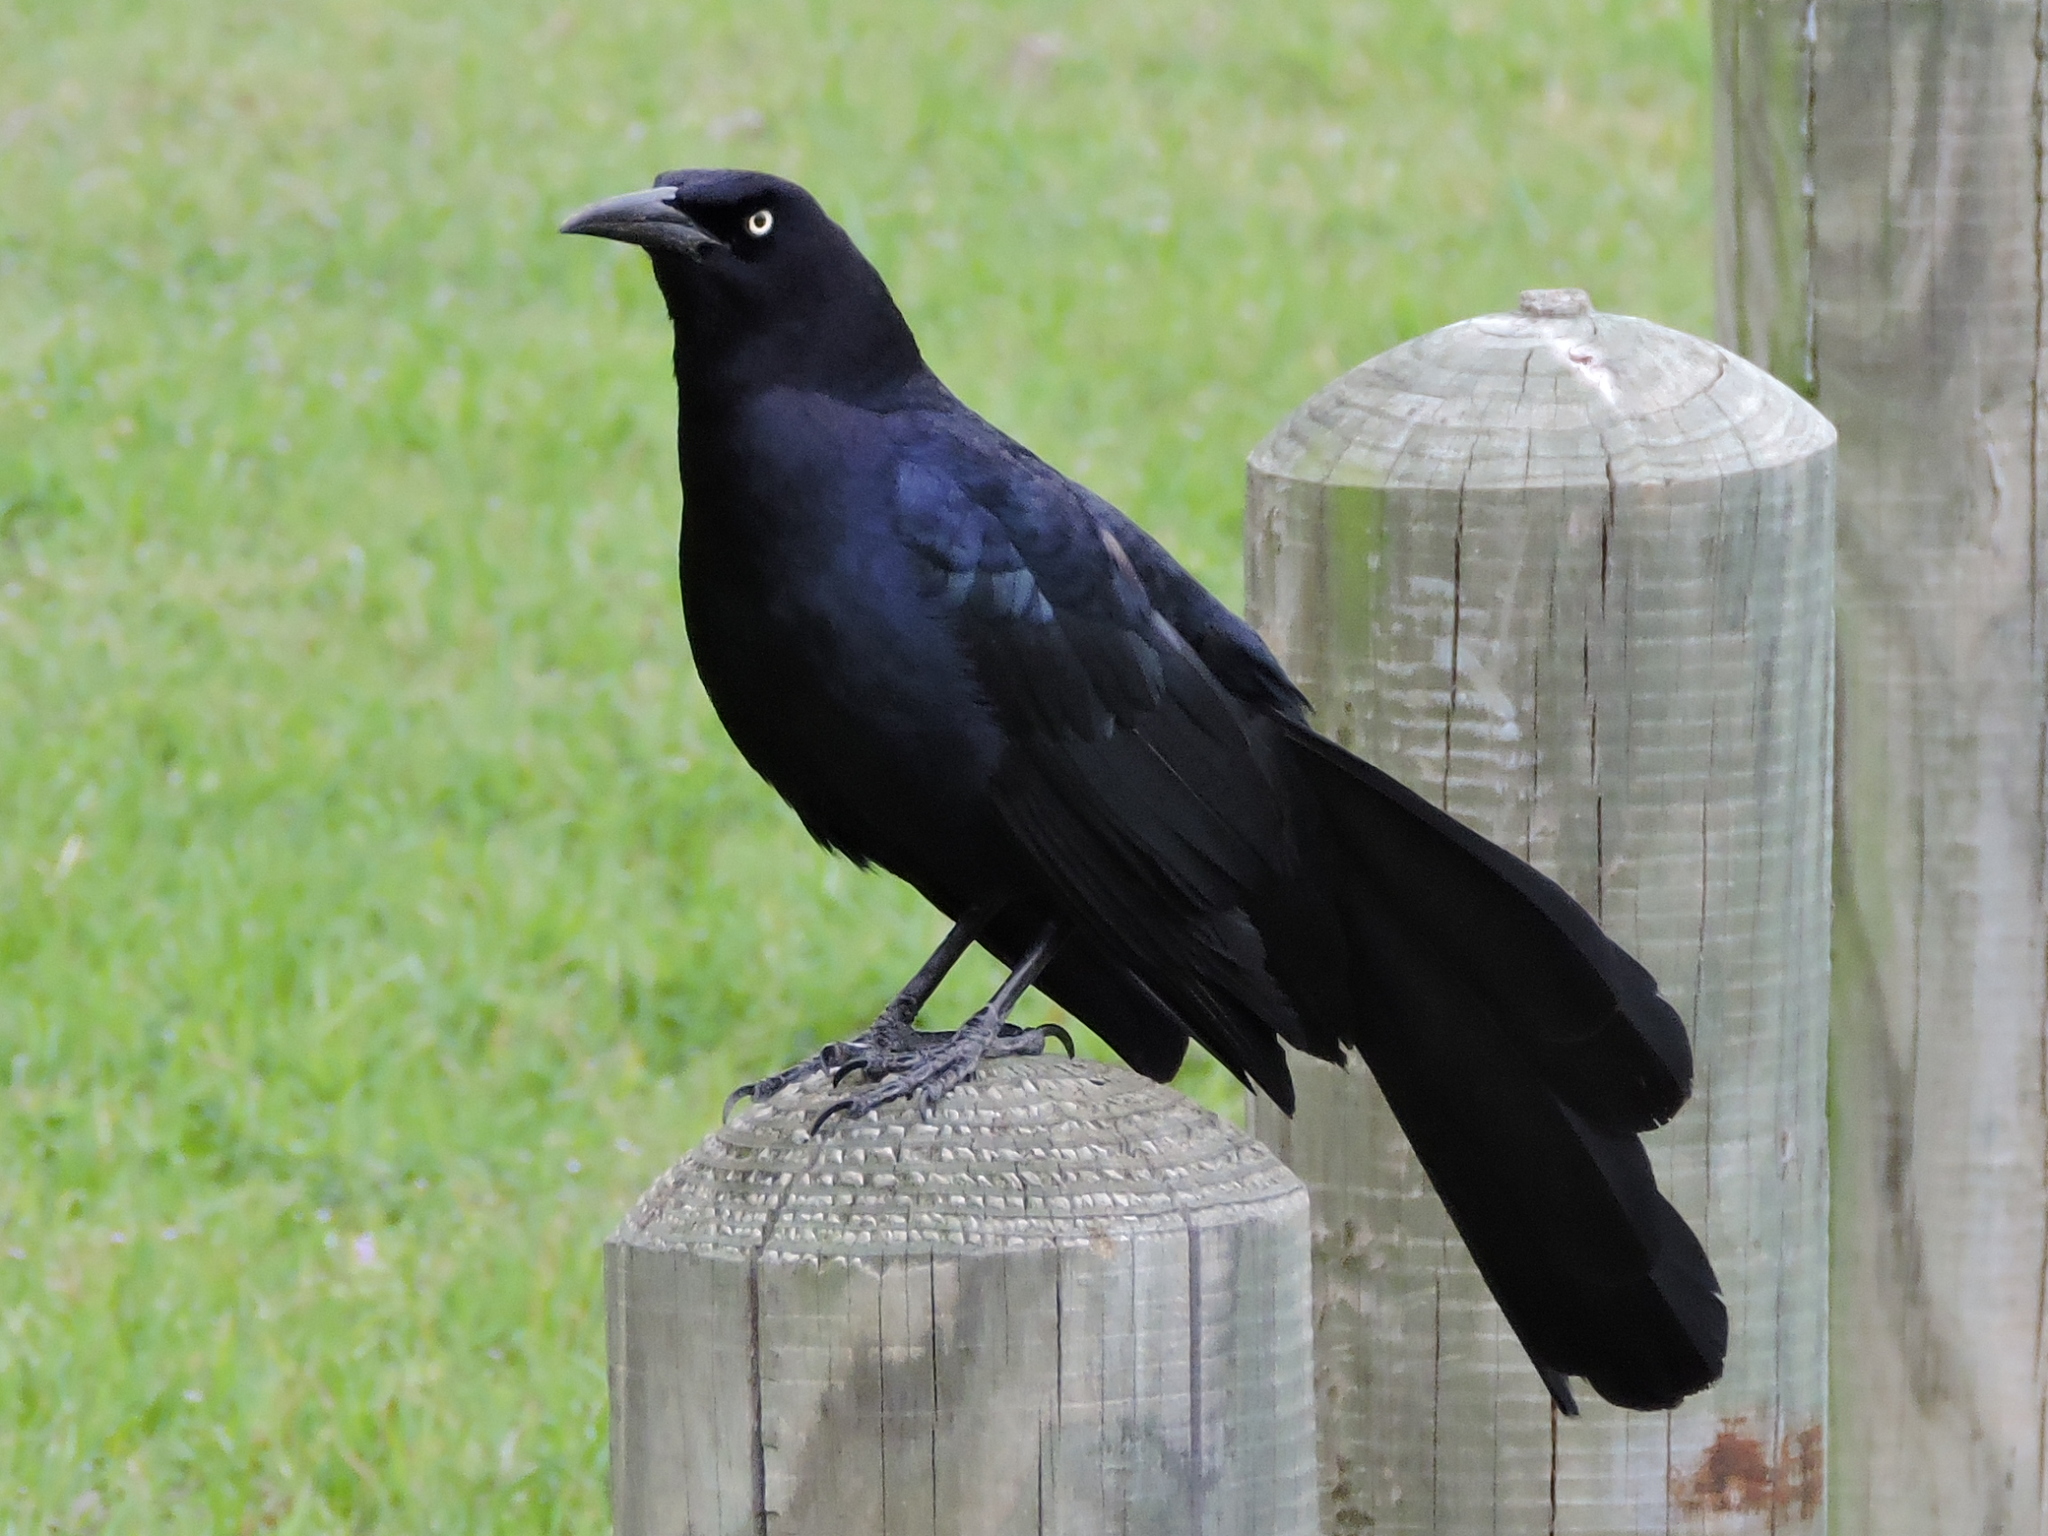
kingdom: Animalia
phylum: Chordata
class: Aves
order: Passeriformes
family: Icteridae
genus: Quiscalus
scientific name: Quiscalus mexicanus
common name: Great-tailed grackle
